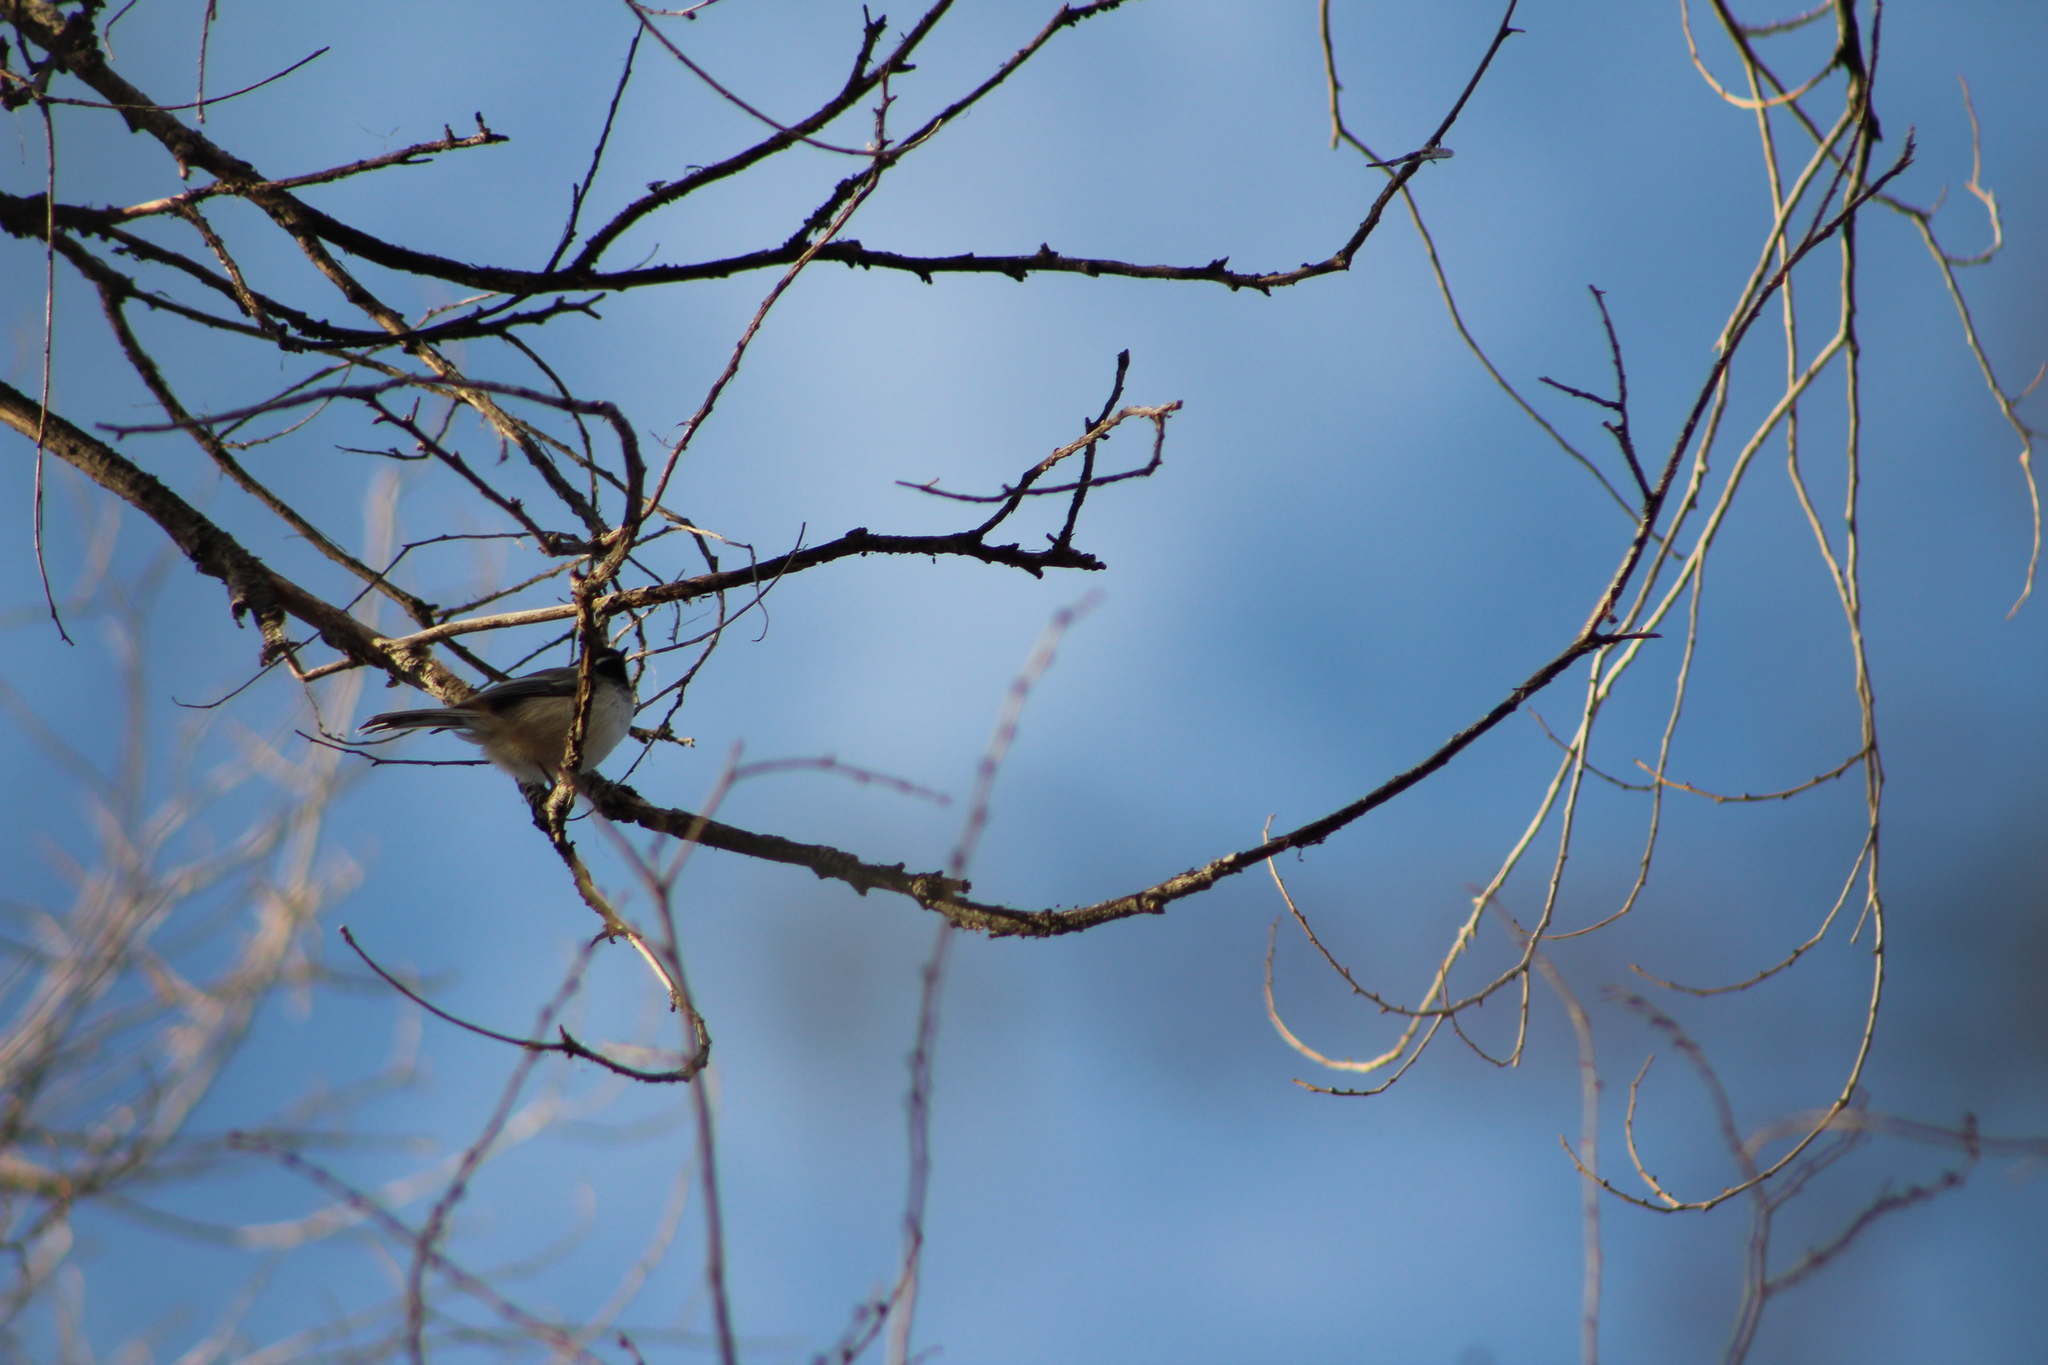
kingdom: Animalia
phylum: Chordata
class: Aves
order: Passeriformes
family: Paridae
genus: Poecile
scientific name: Poecile atricapillus
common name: Black-capped chickadee
